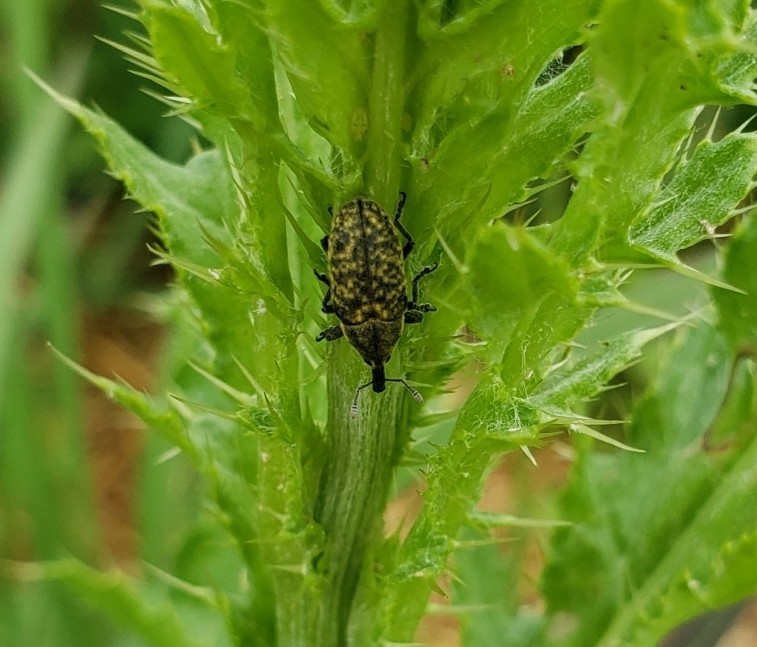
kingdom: Animalia
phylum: Arthropoda
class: Insecta
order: Coleoptera
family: Curculionidae
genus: Larinus
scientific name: Larinus carlinae
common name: Weevil
